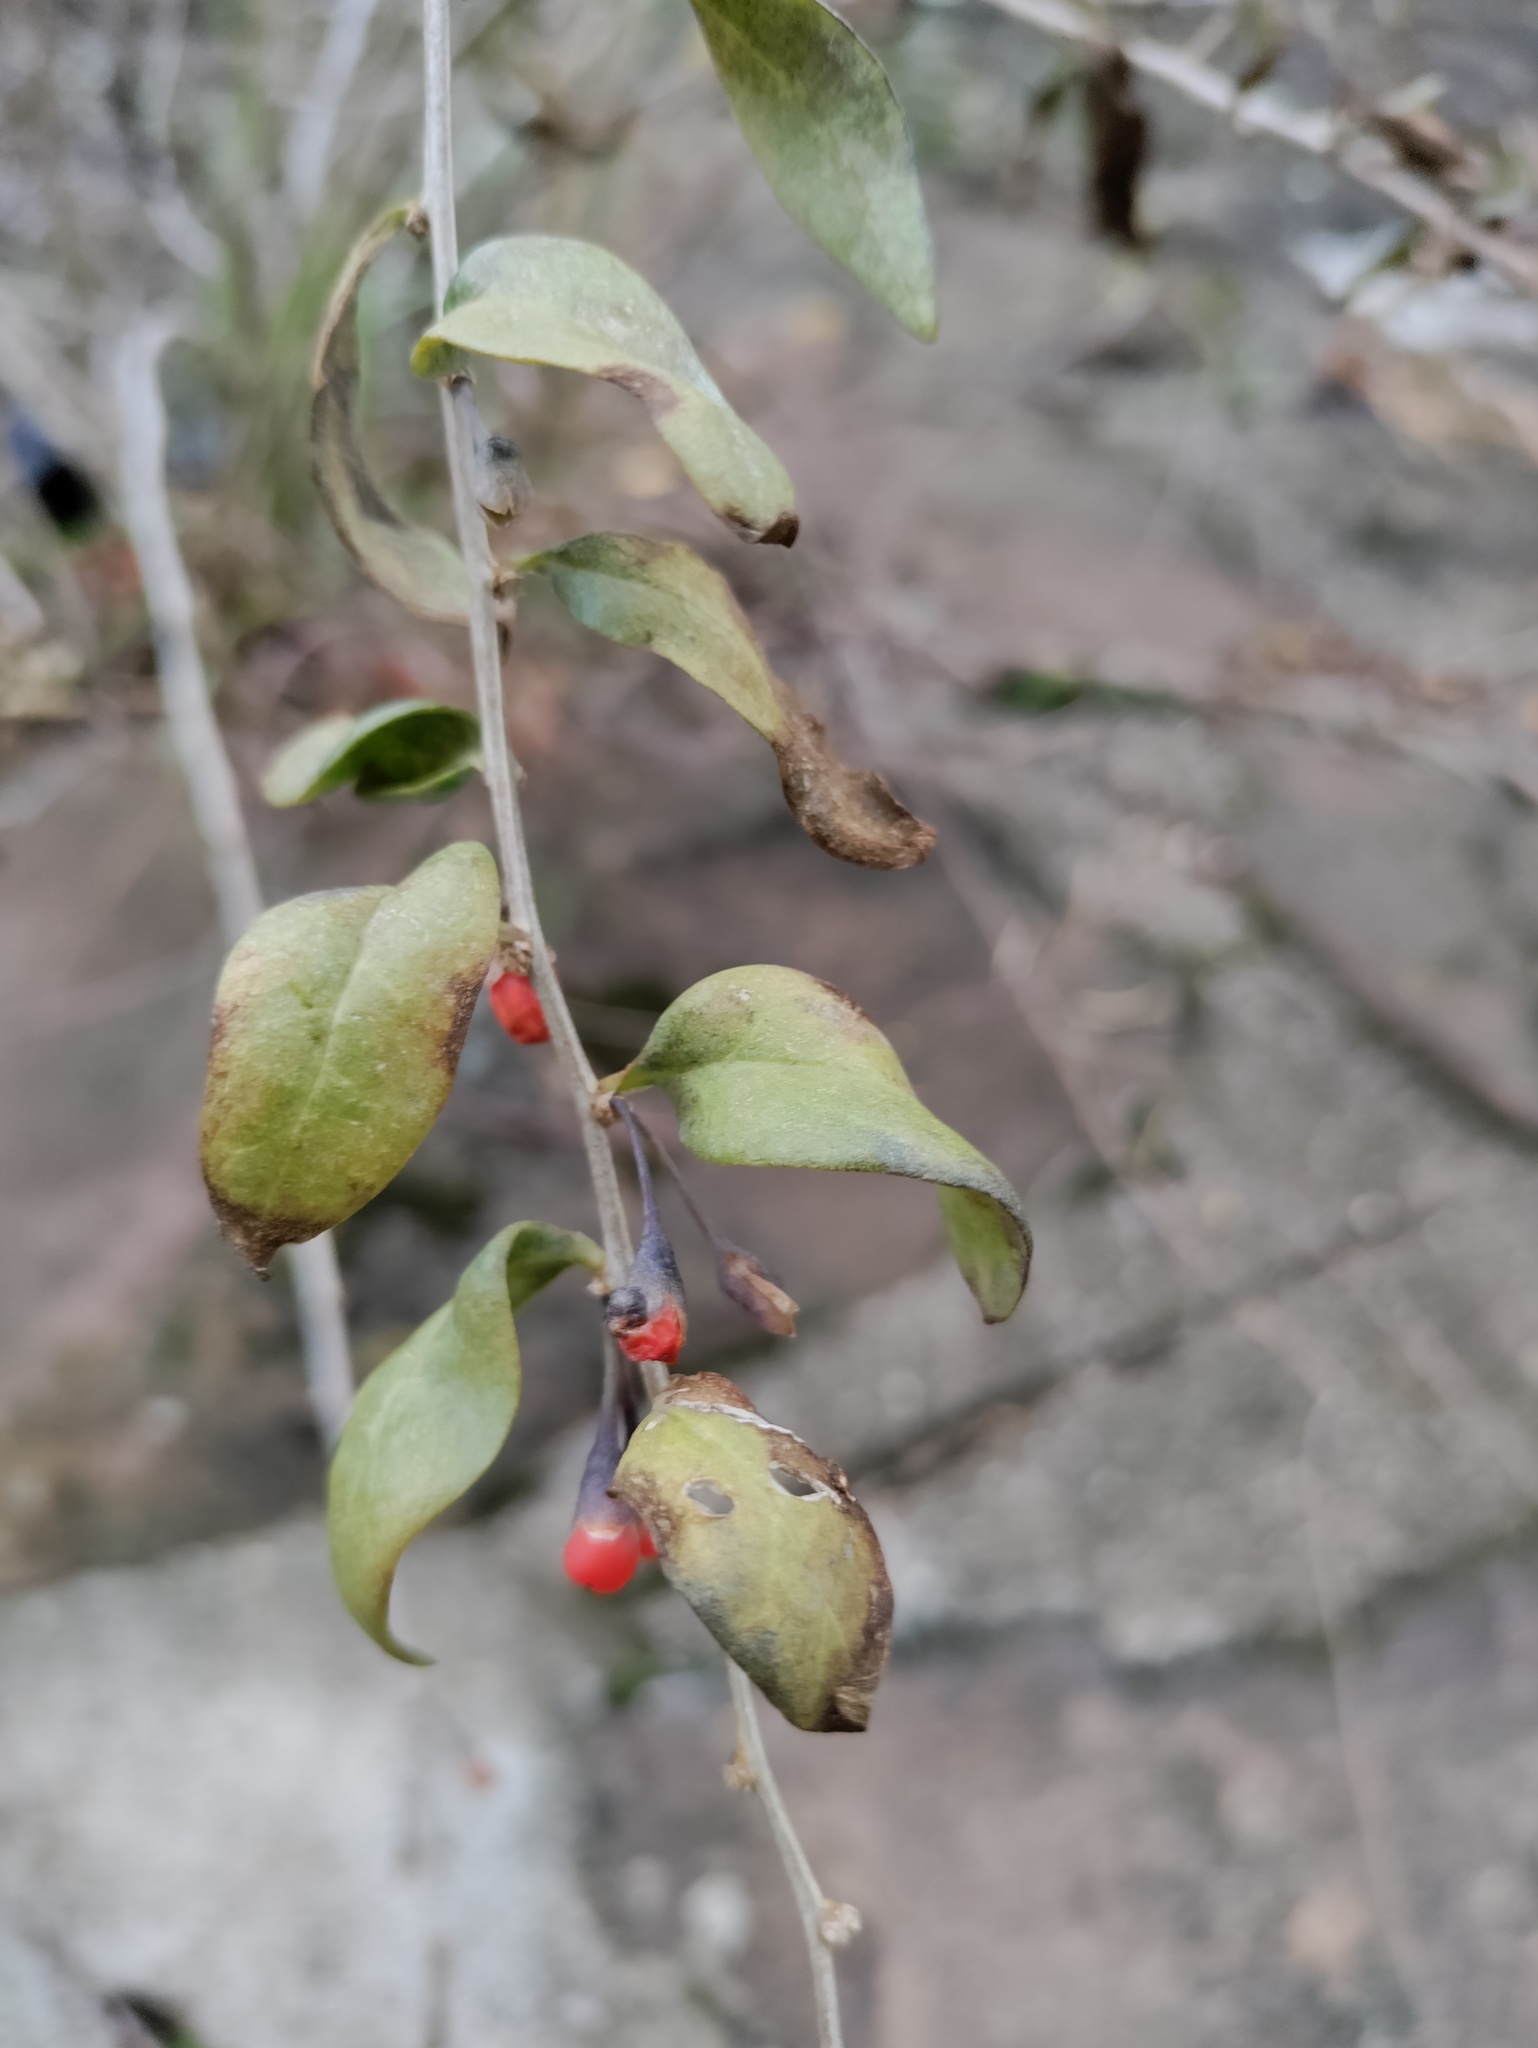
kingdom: Plantae
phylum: Tracheophyta
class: Magnoliopsida
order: Solanales
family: Solanaceae
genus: Lycium
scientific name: Lycium barbarum
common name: Duke of argyll's teaplant
